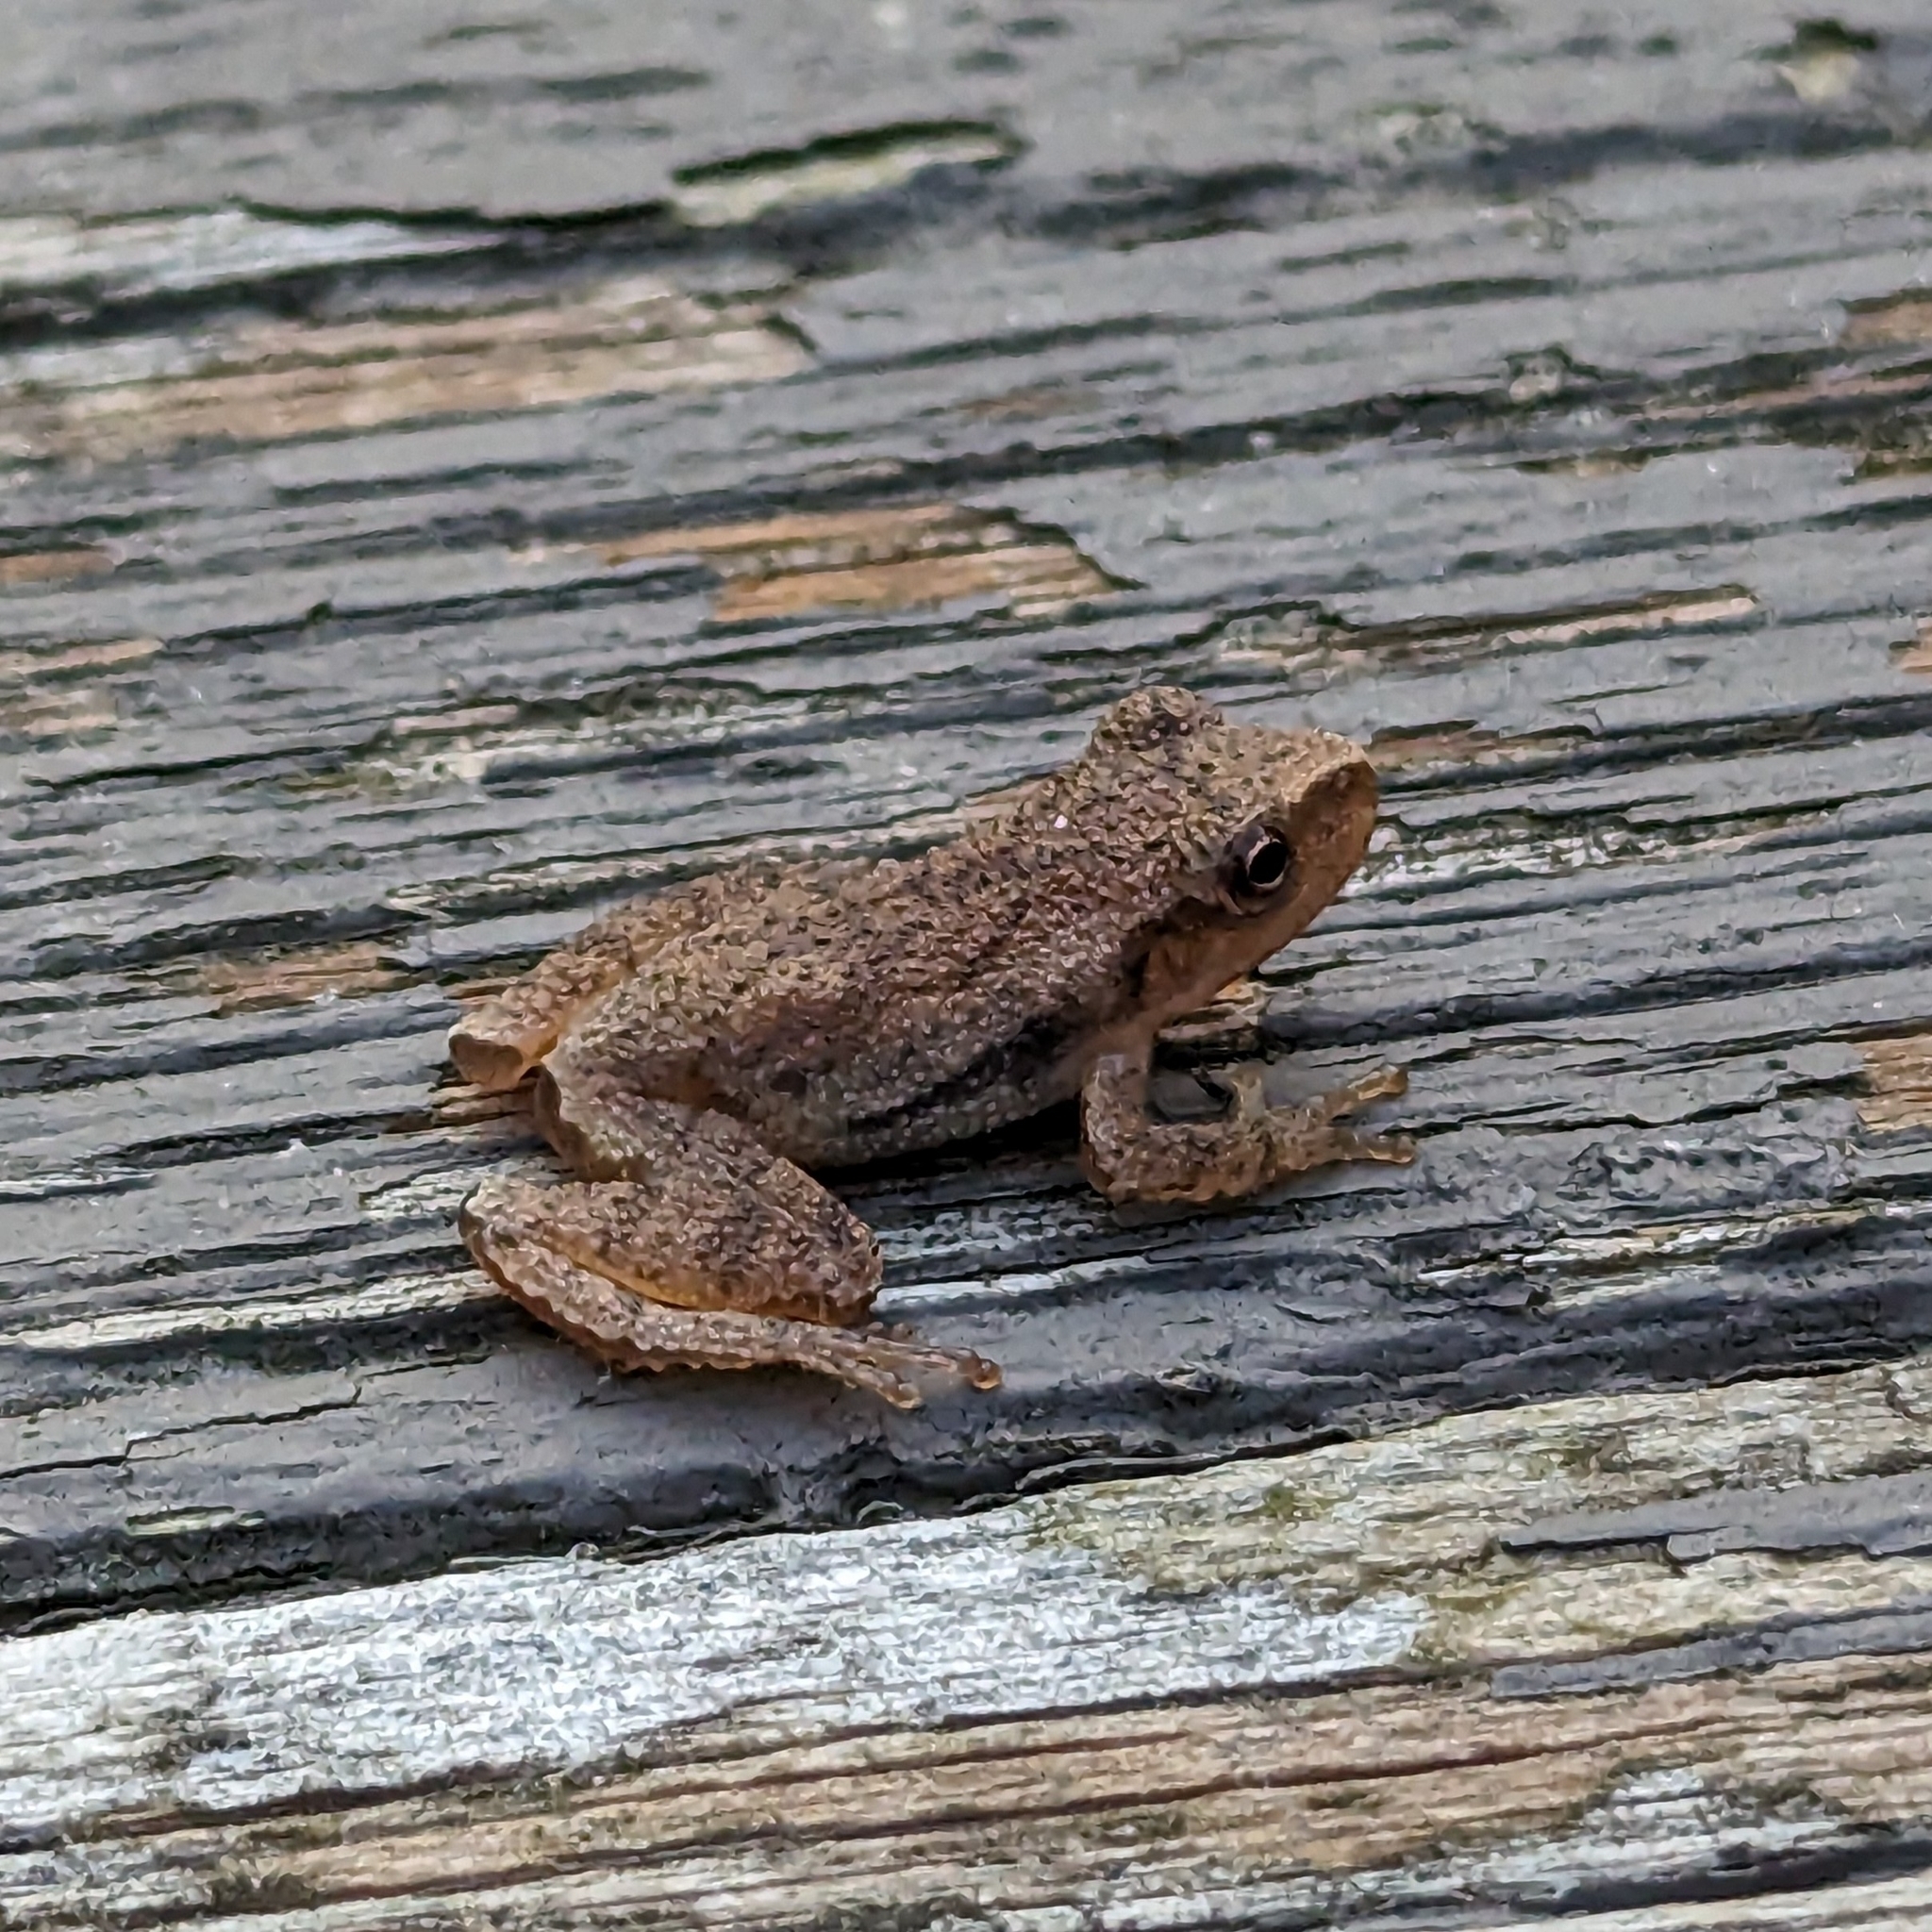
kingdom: Animalia
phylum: Chordata
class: Amphibia
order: Anura
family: Hylidae
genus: Pseudacris
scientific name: Pseudacris crucifer
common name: Spring peeper
